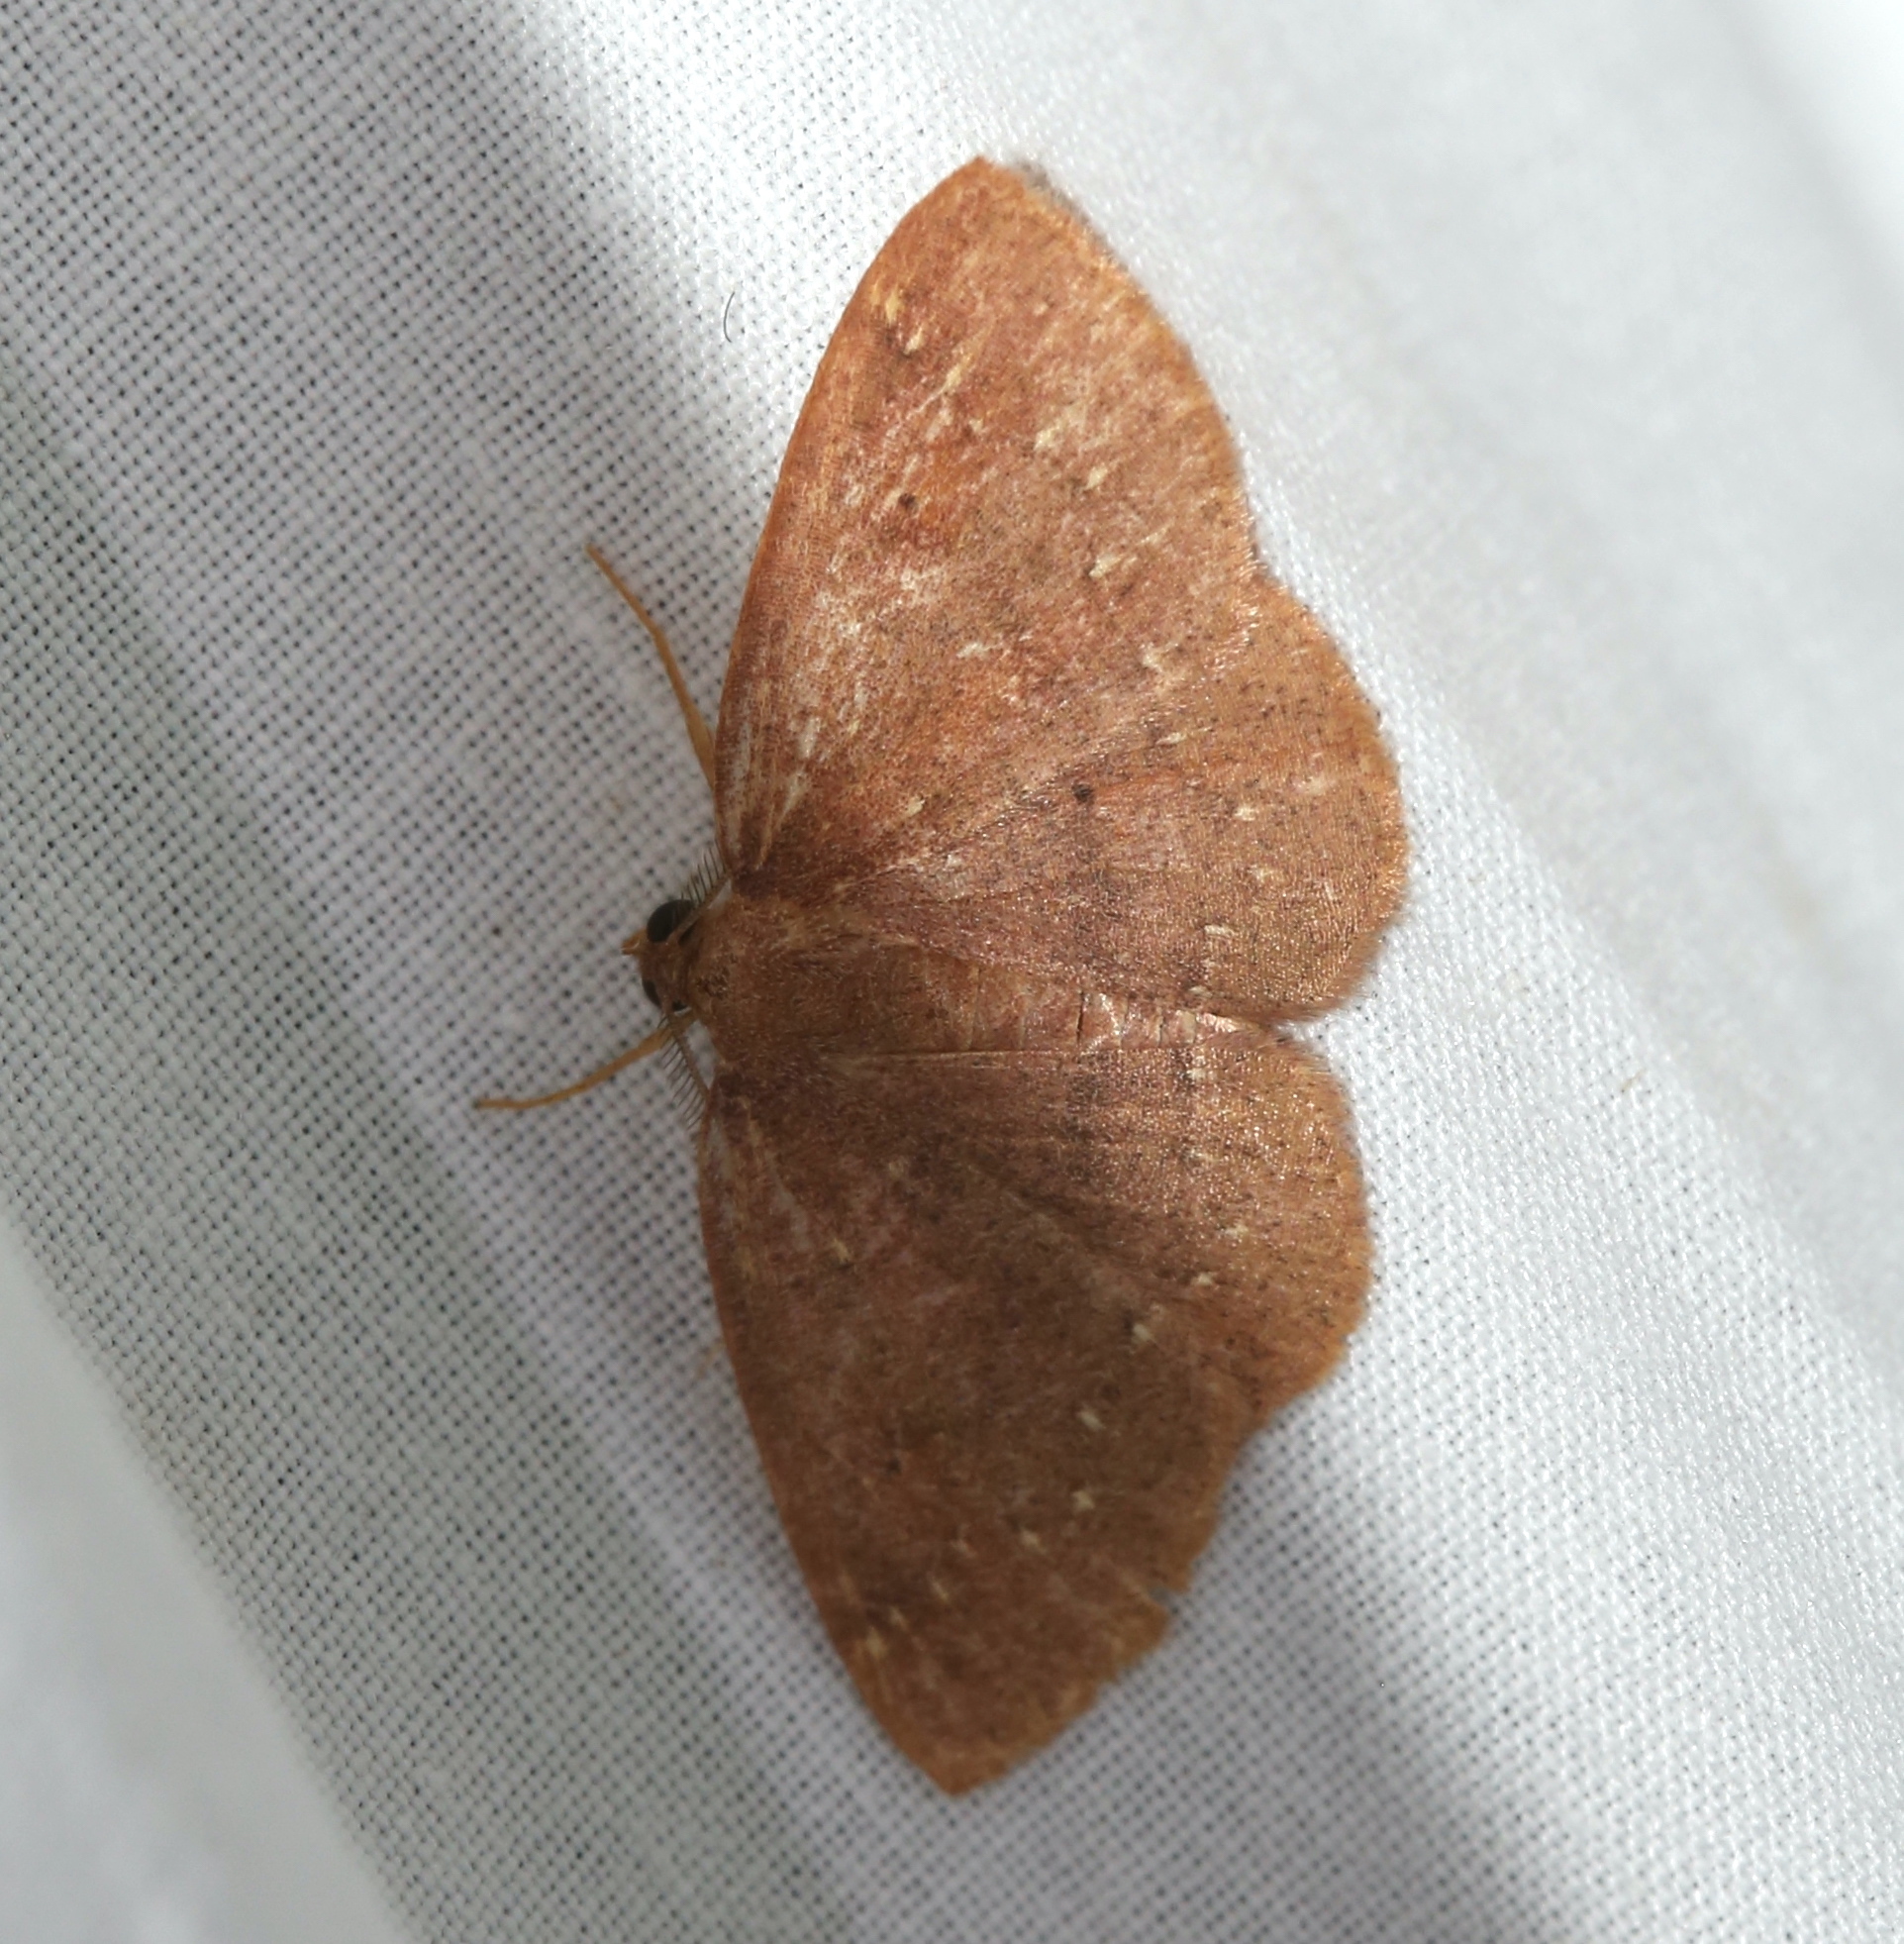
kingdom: Animalia
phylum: Arthropoda
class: Insecta
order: Lepidoptera
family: Geometridae
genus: Ilexia
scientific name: Ilexia intractata
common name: Black-dotted ruddy moth
